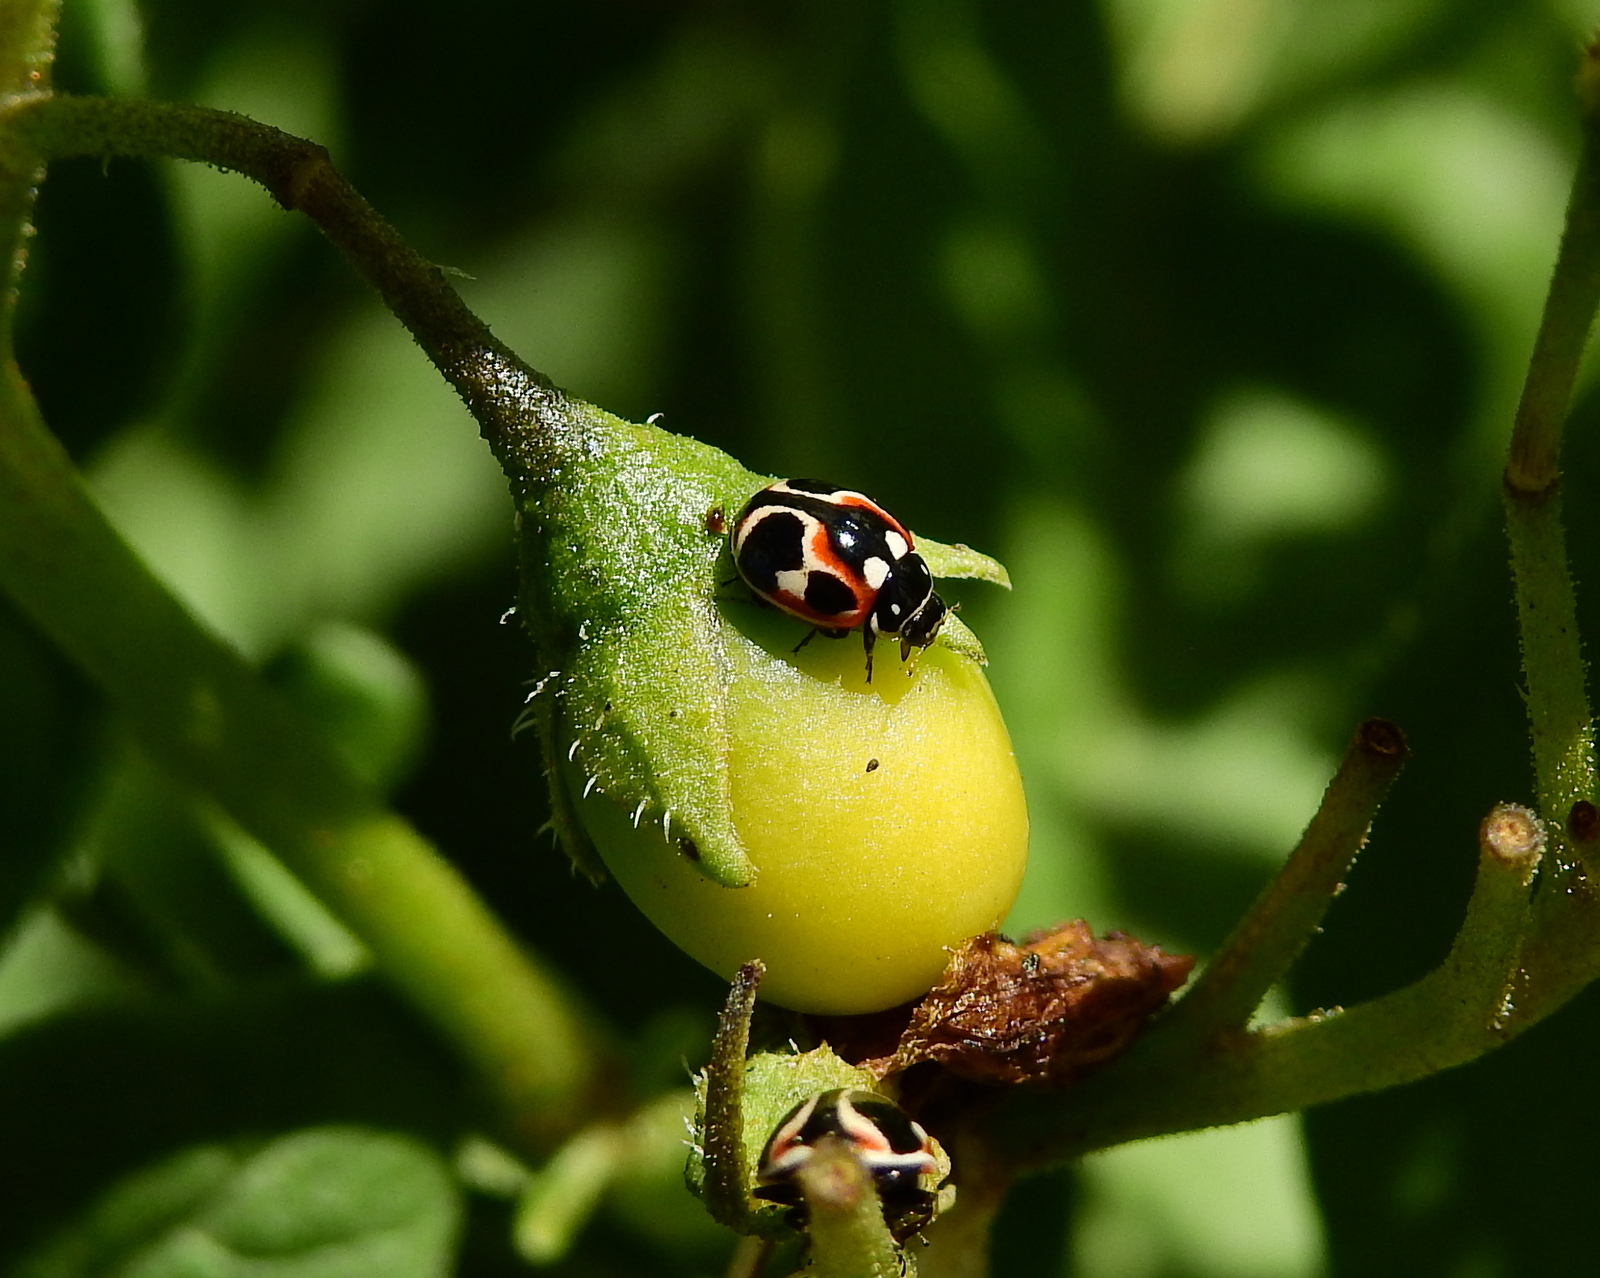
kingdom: Animalia
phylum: Arthropoda
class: Insecta
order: Coleoptera
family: Coccinellidae
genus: Cycloneda
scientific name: Cycloneda ancoralis
